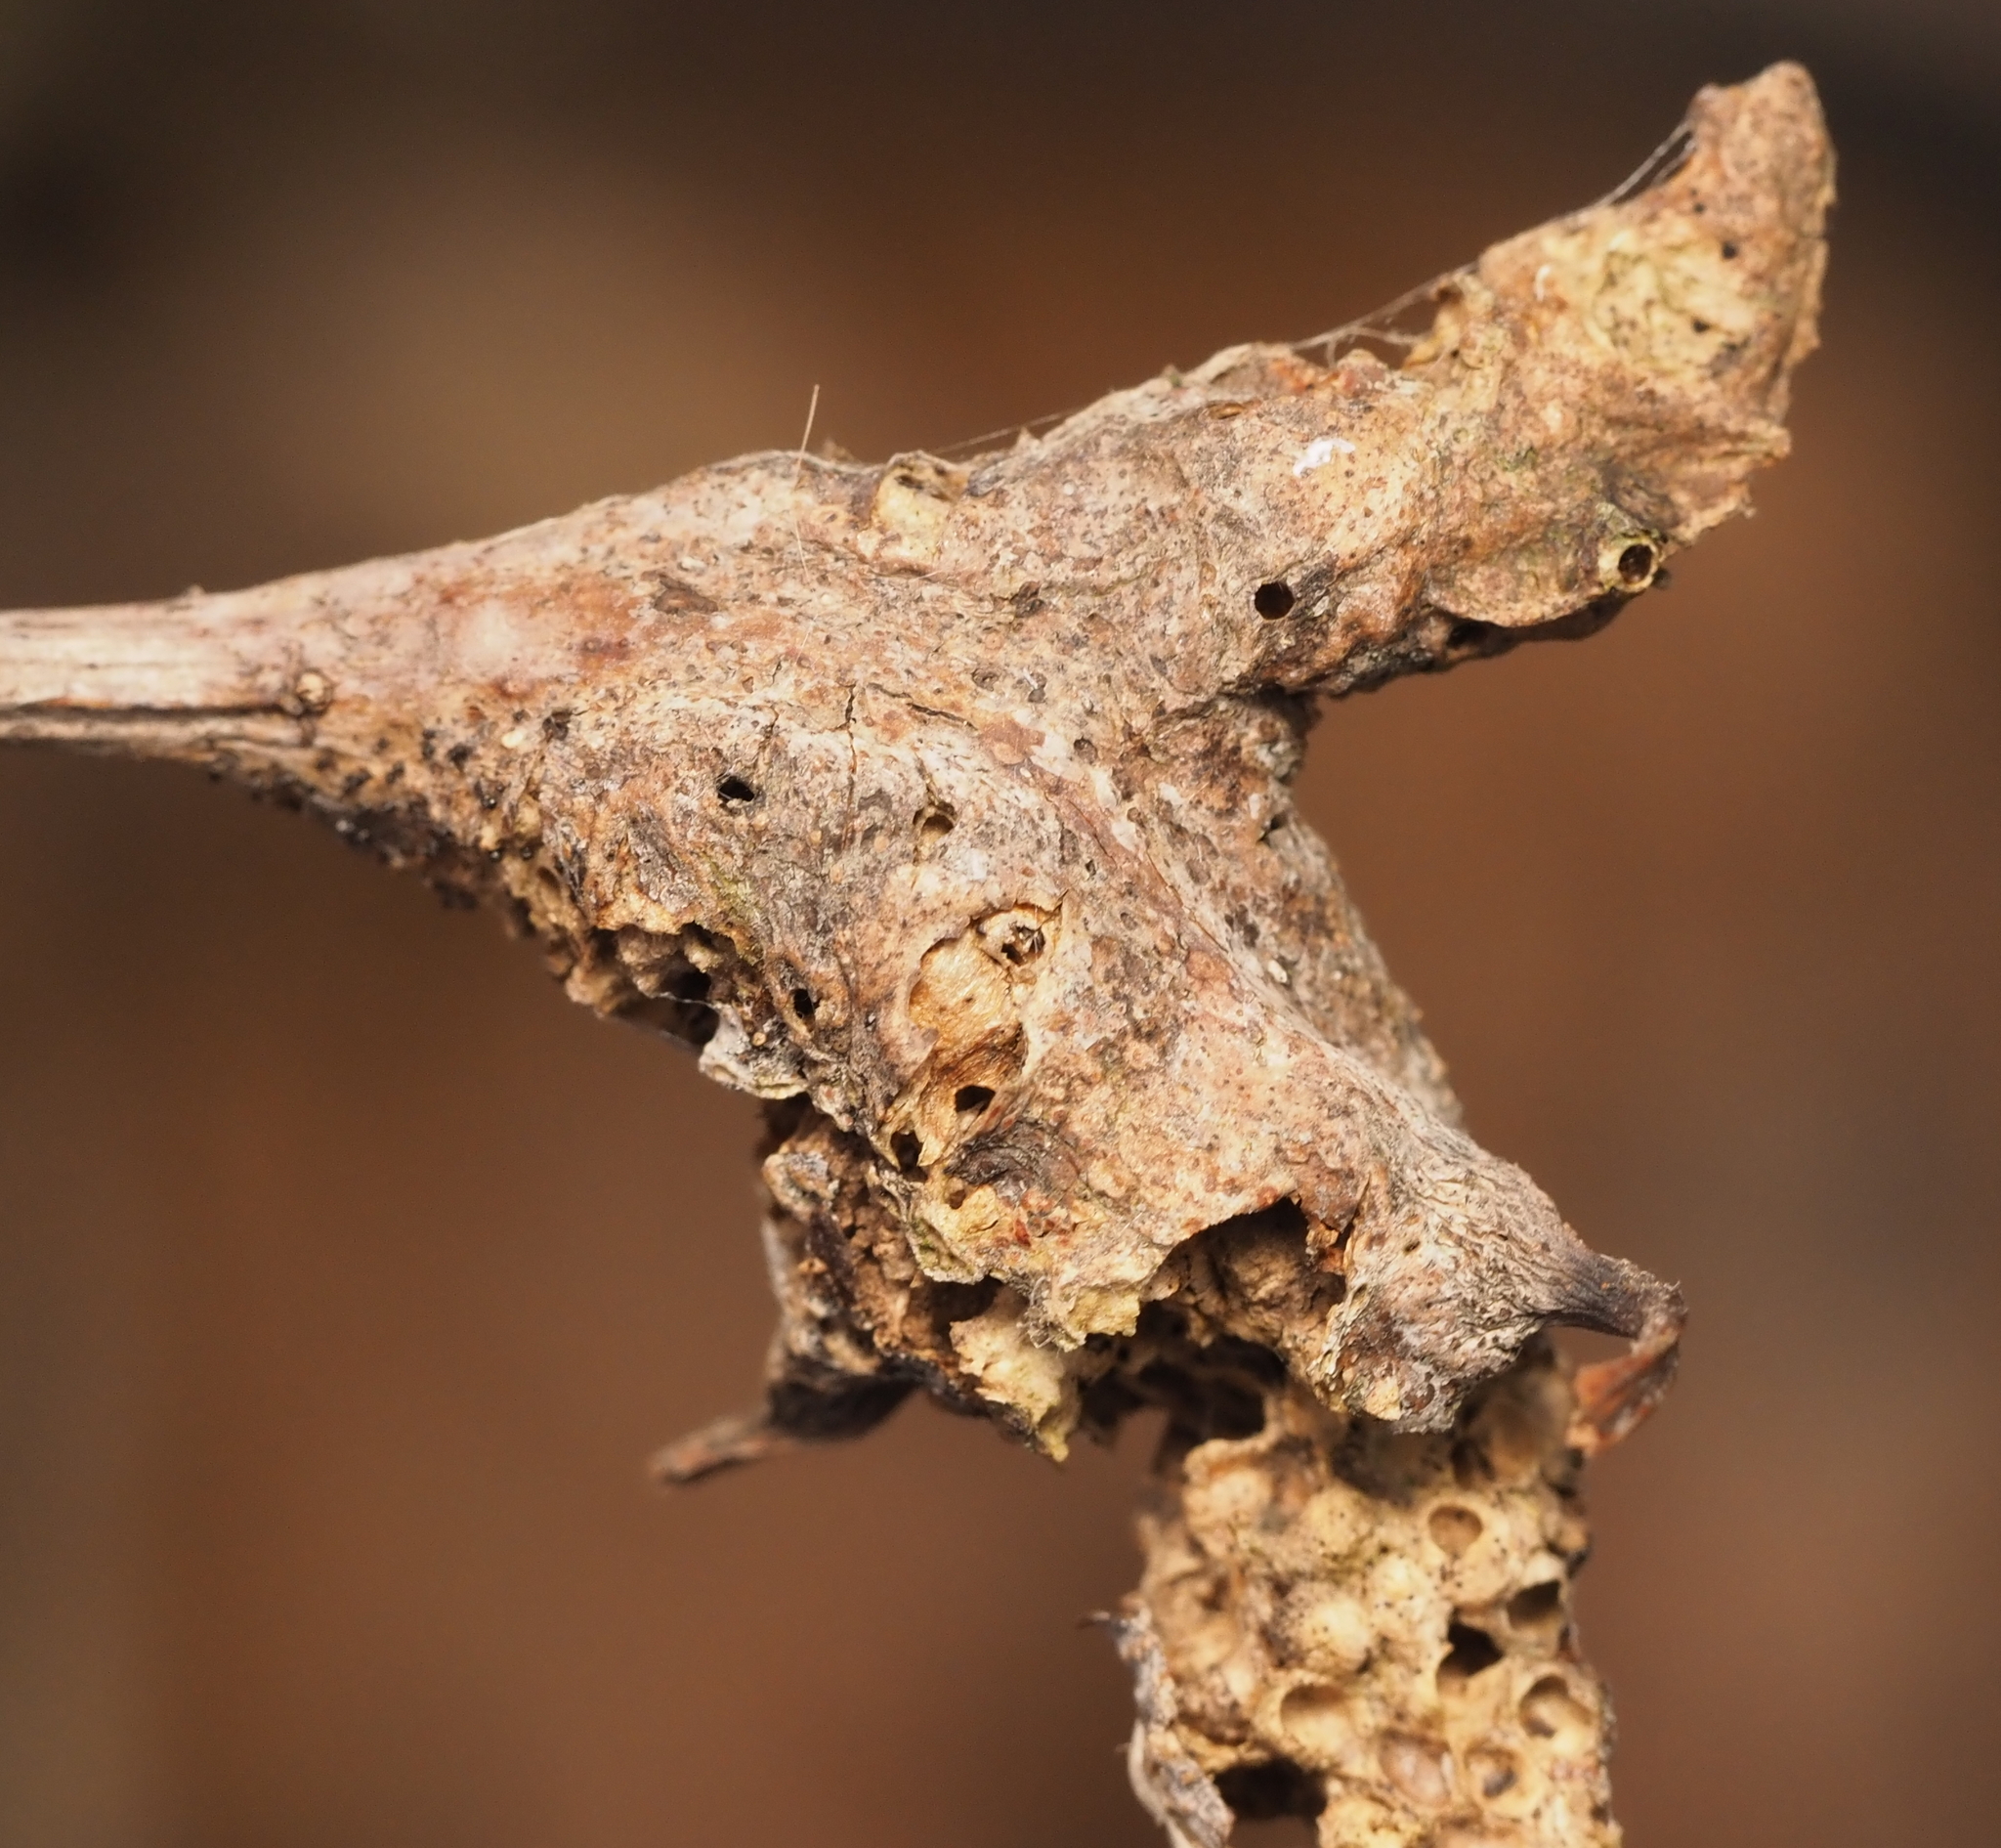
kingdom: Animalia
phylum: Arthropoda
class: Insecta
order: Hymenoptera
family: Cynipidae
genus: Neuroterus
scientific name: Neuroterus quercusbaccarum
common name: Common spangle gall
